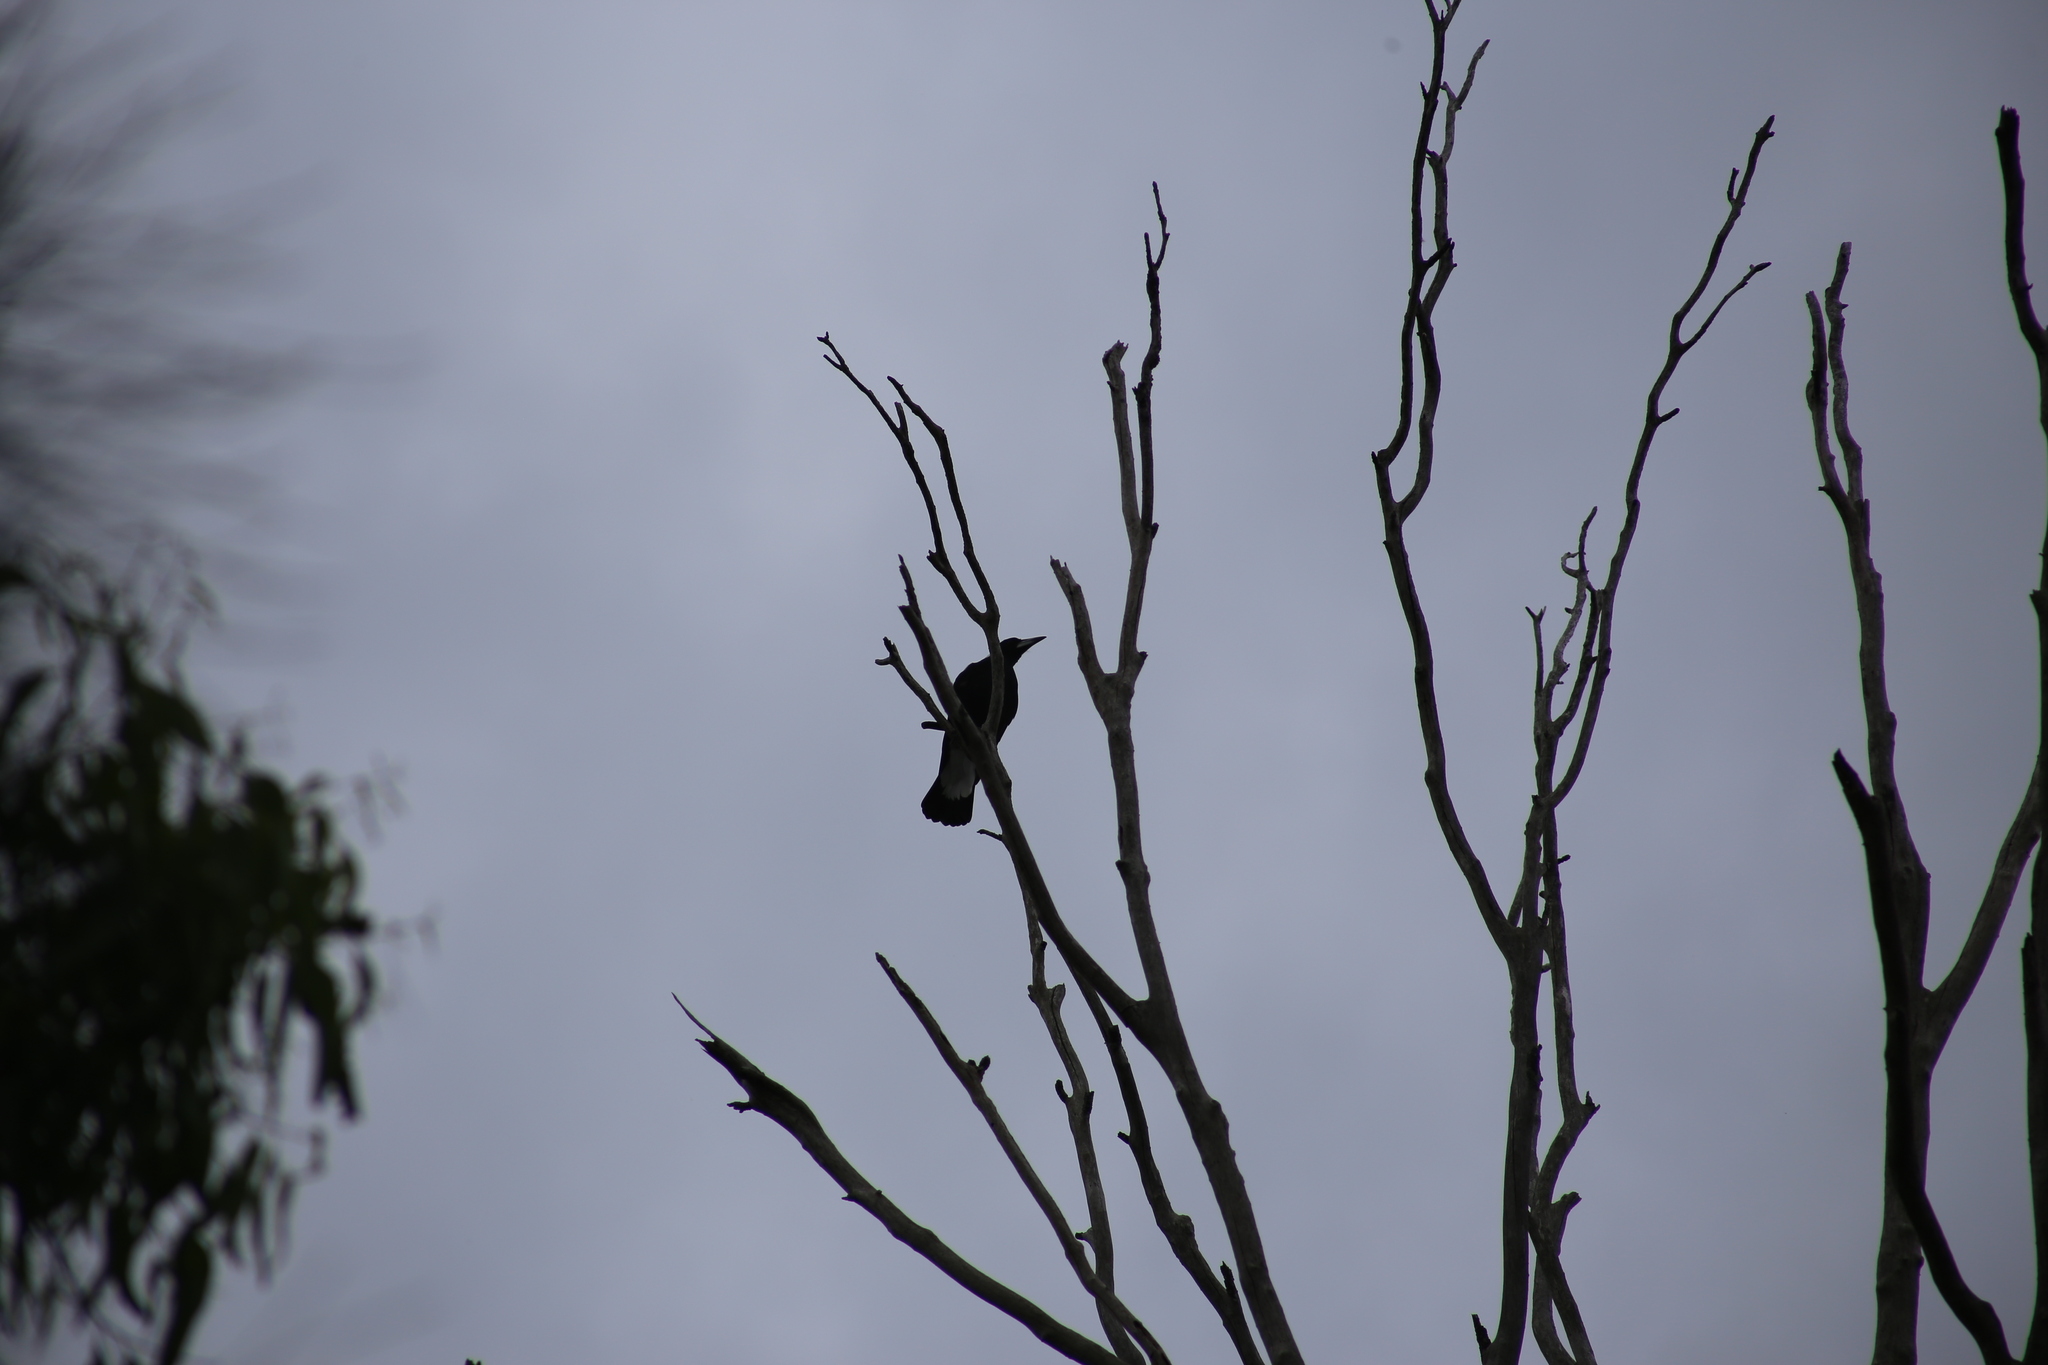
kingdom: Animalia
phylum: Chordata
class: Aves
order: Passeriformes
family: Cracticidae
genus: Gymnorhina
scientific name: Gymnorhina tibicen
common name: Australian magpie
